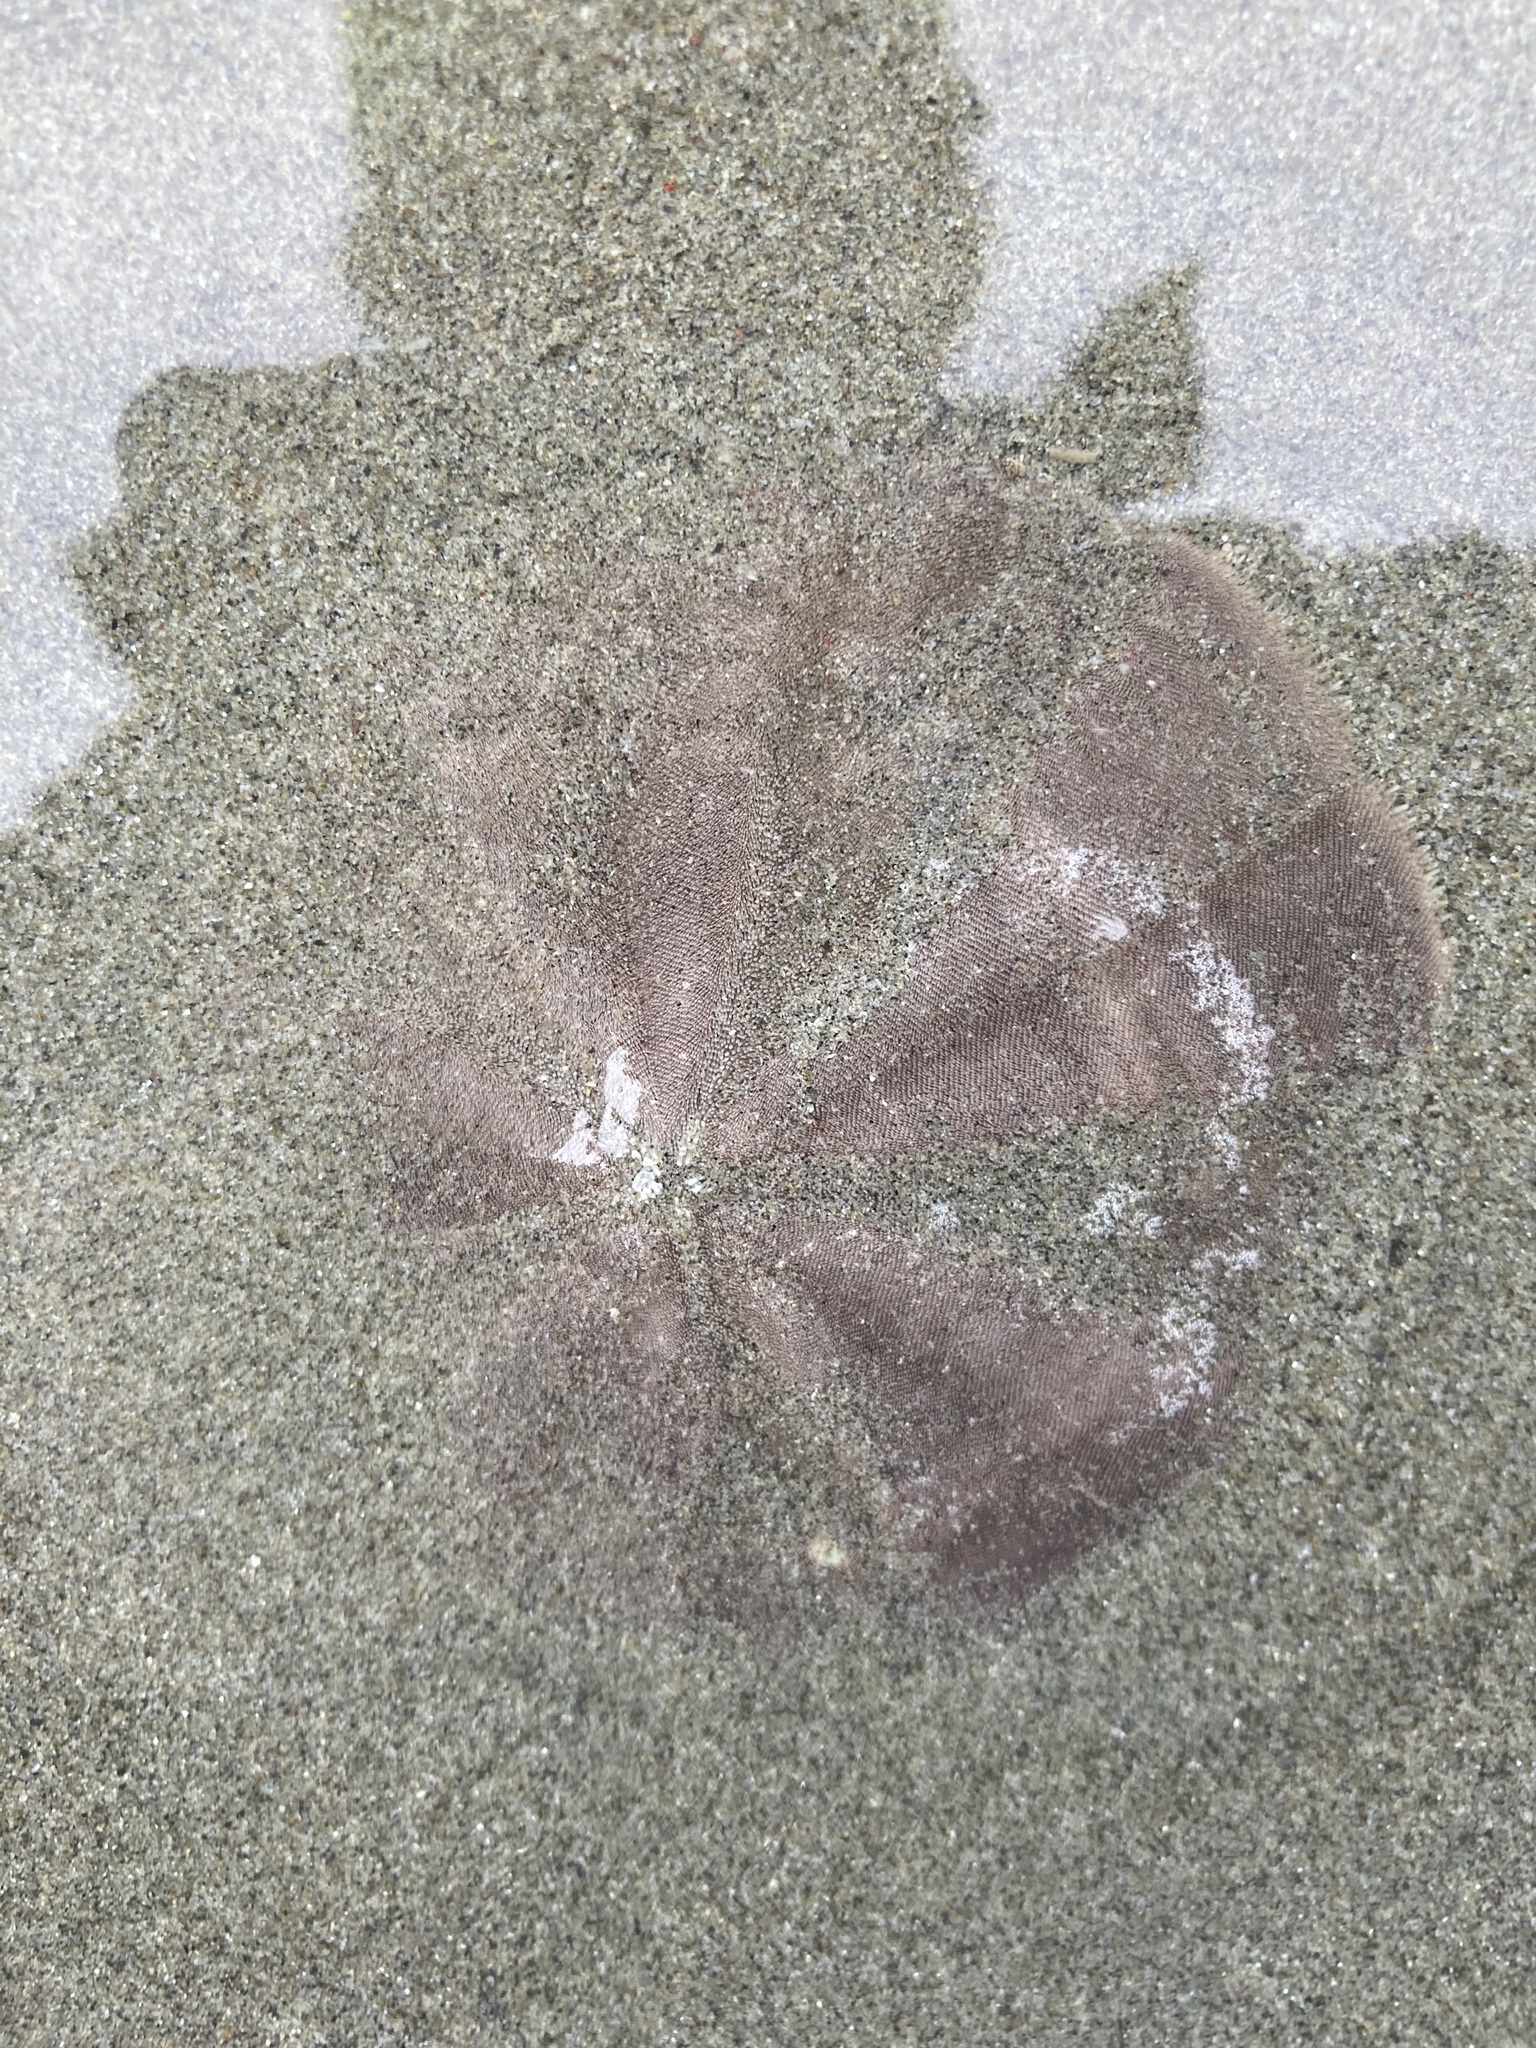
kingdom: Animalia
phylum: Echinodermata
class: Echinoidea
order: Clypeasteroida
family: Clypeasteridae
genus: Fellaster
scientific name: Fellaster zelandiae
